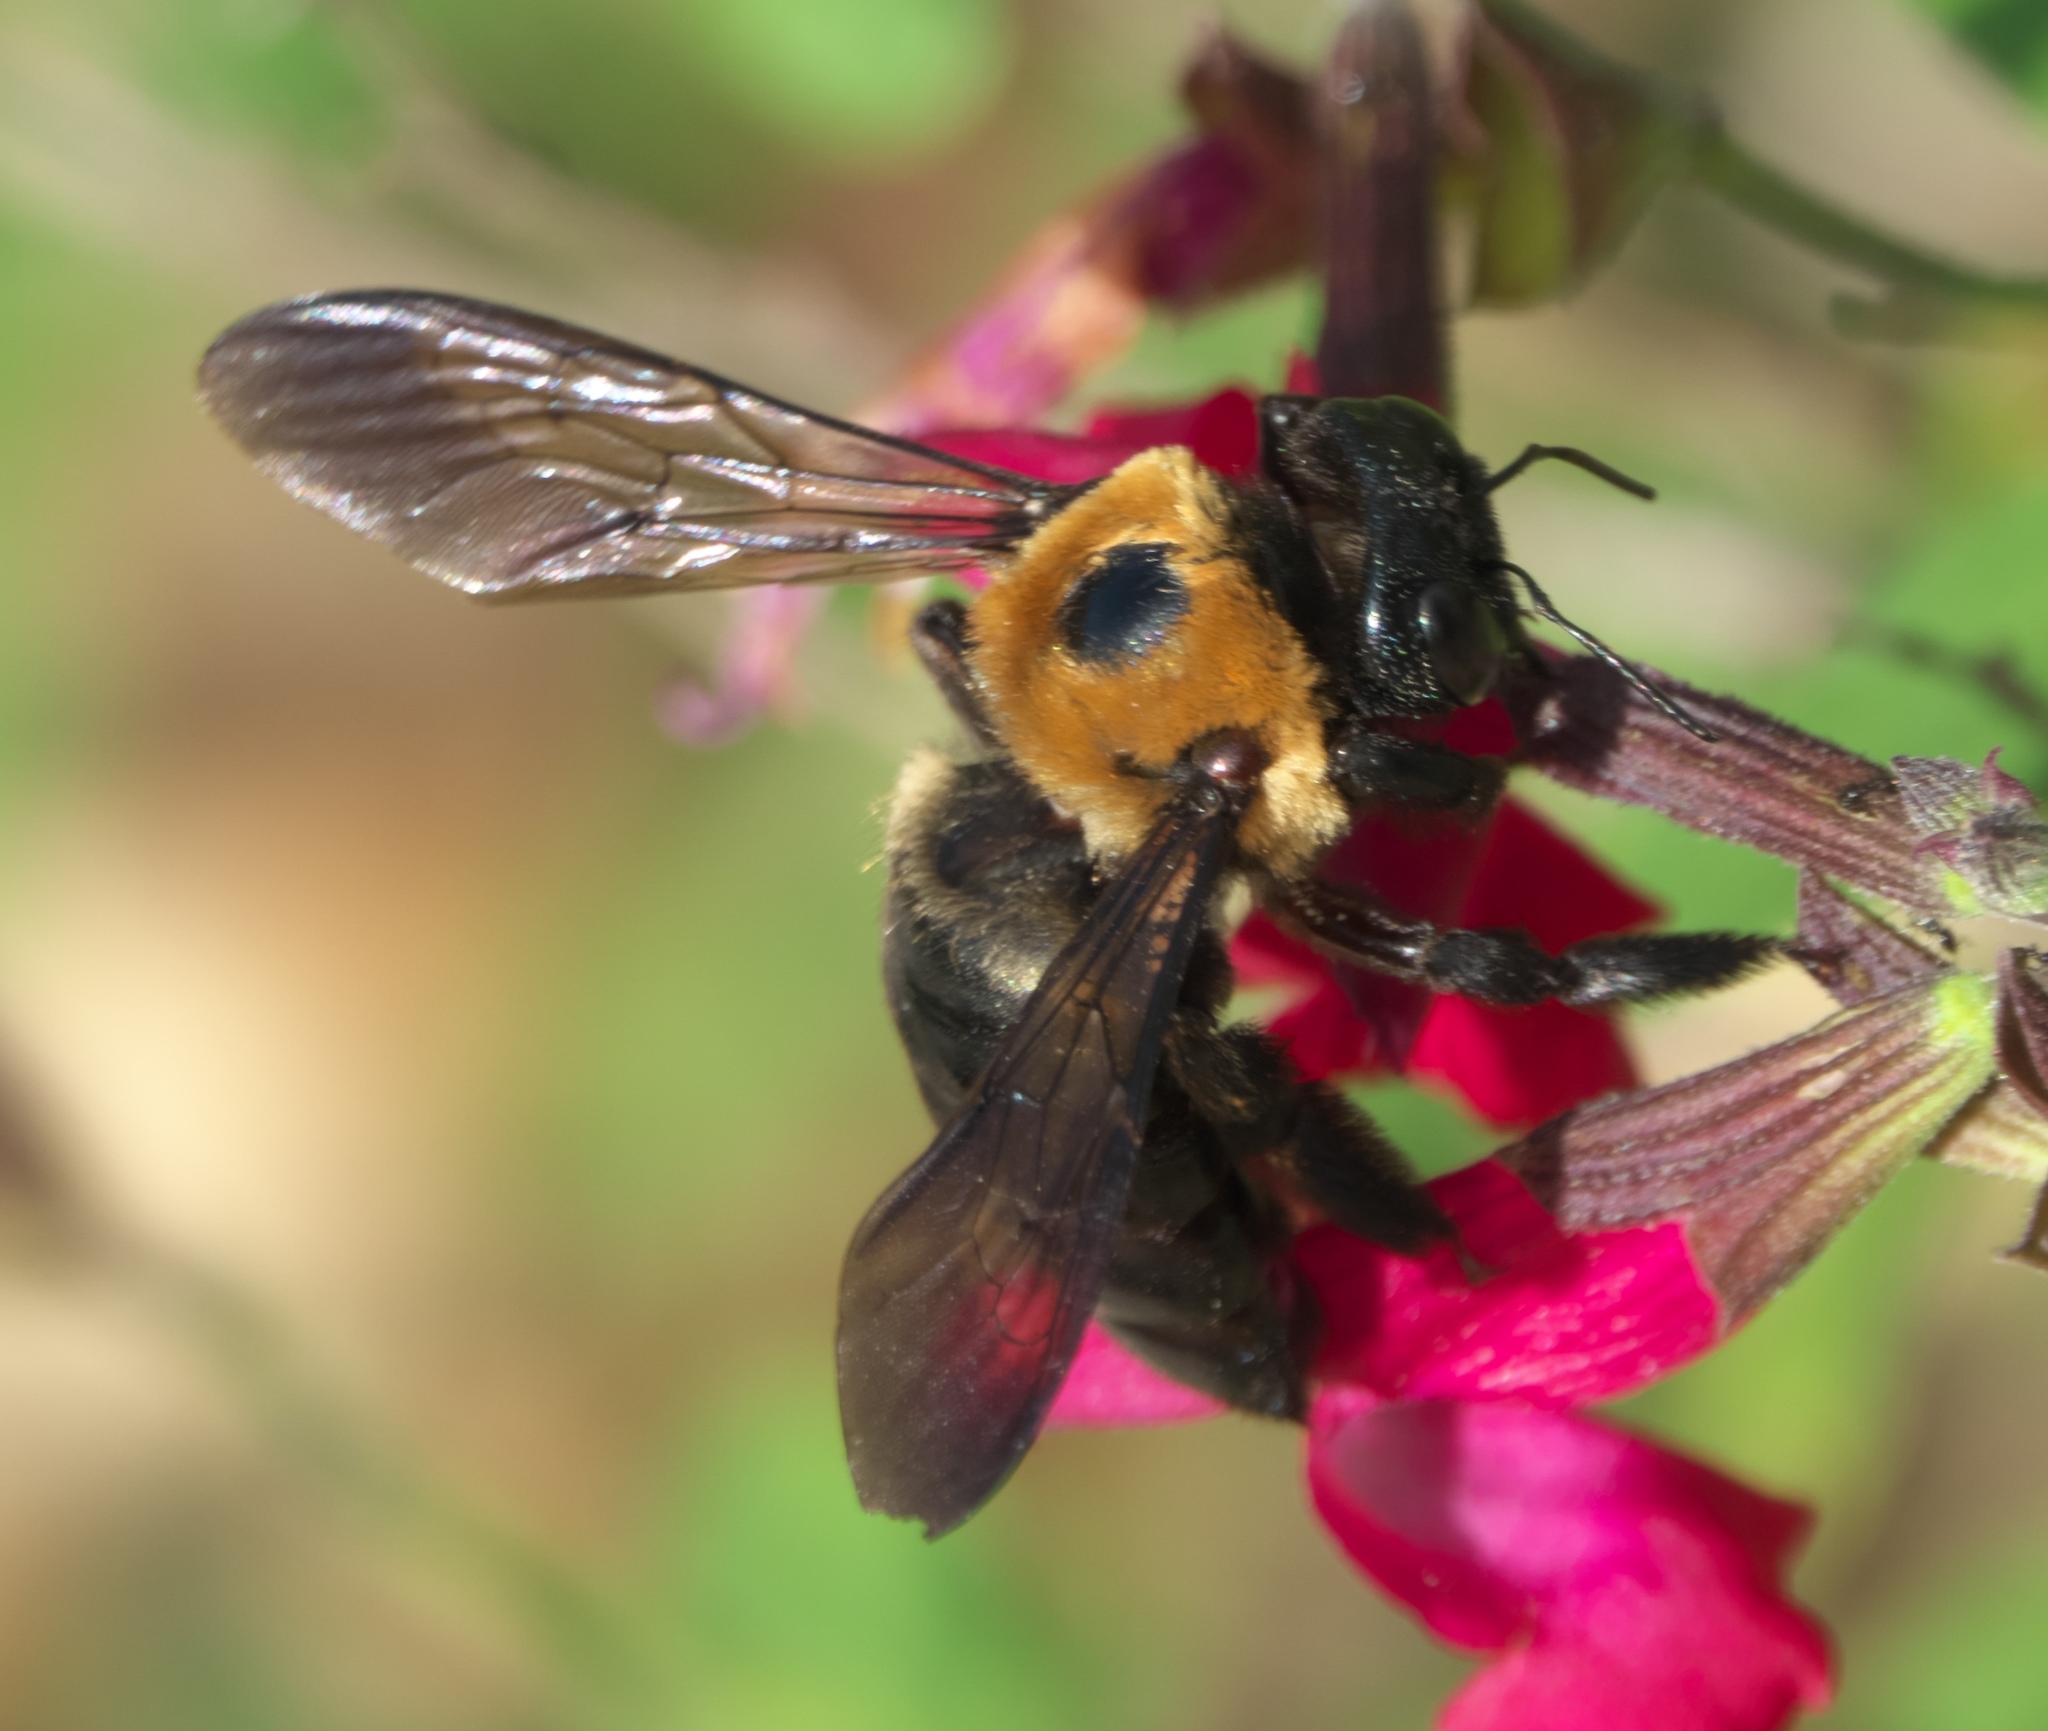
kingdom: Animalia
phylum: Arthropoda
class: Insecta
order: Hymenoptera
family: Apidae
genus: Xylocopa
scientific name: Xylocopa virginica
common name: Carpenter bee
